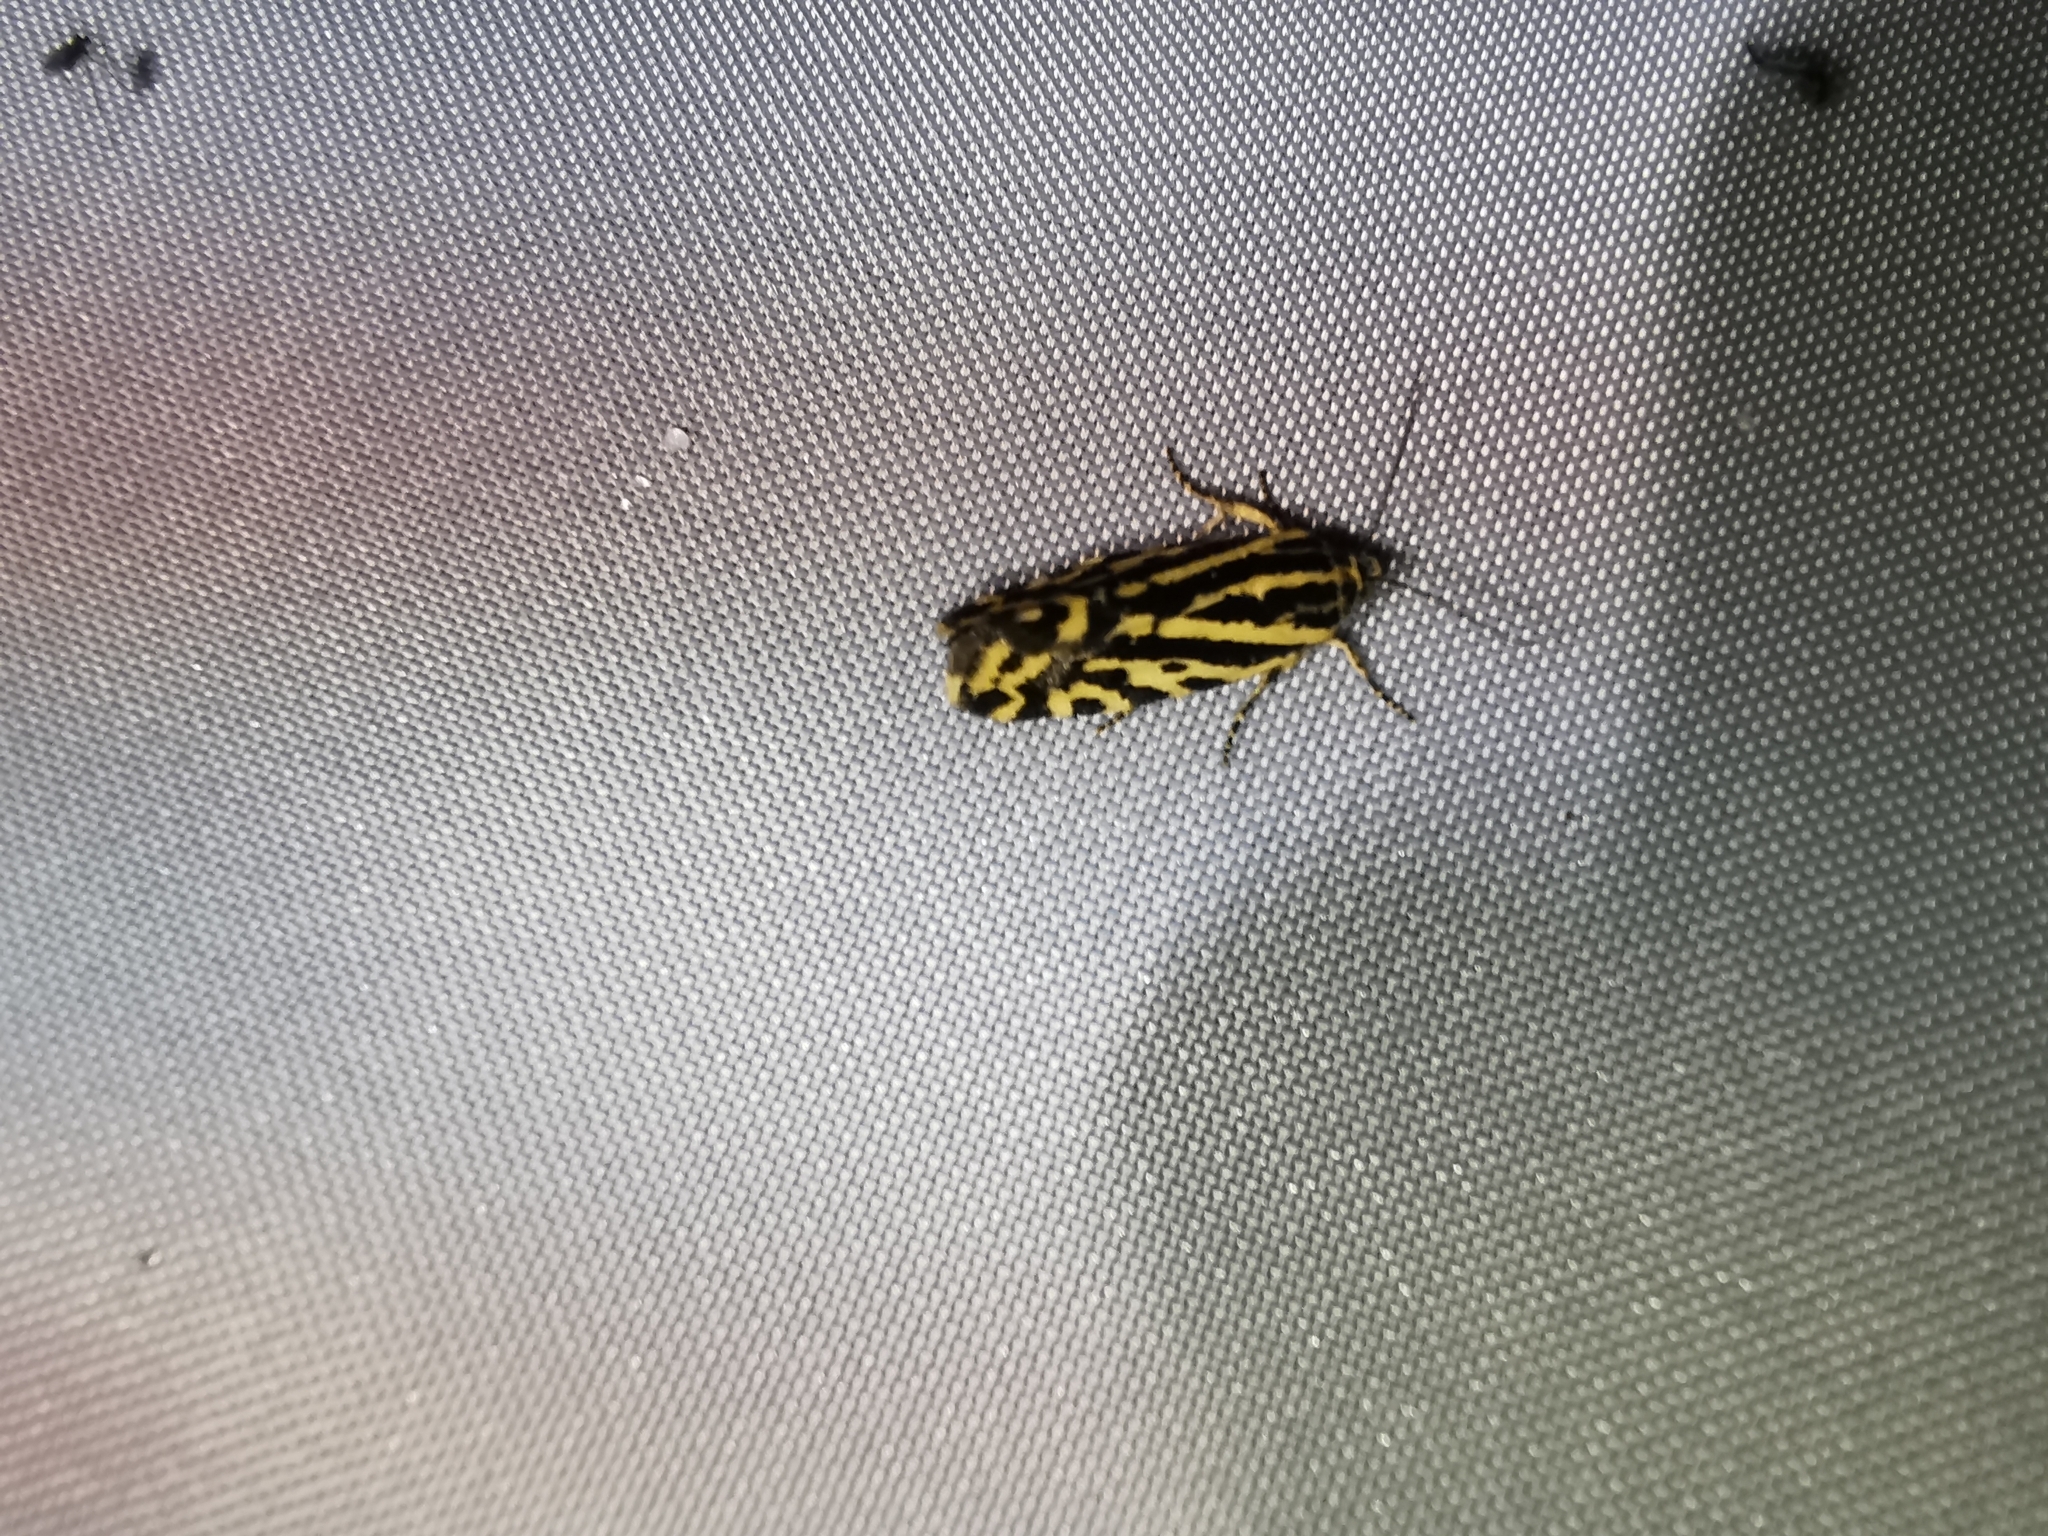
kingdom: Animalia
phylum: Arthropoda
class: Insecta
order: Lepidoptera
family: Noctuidae
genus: Acontia
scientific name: Acontia trabealis
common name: Spotted sulphur
